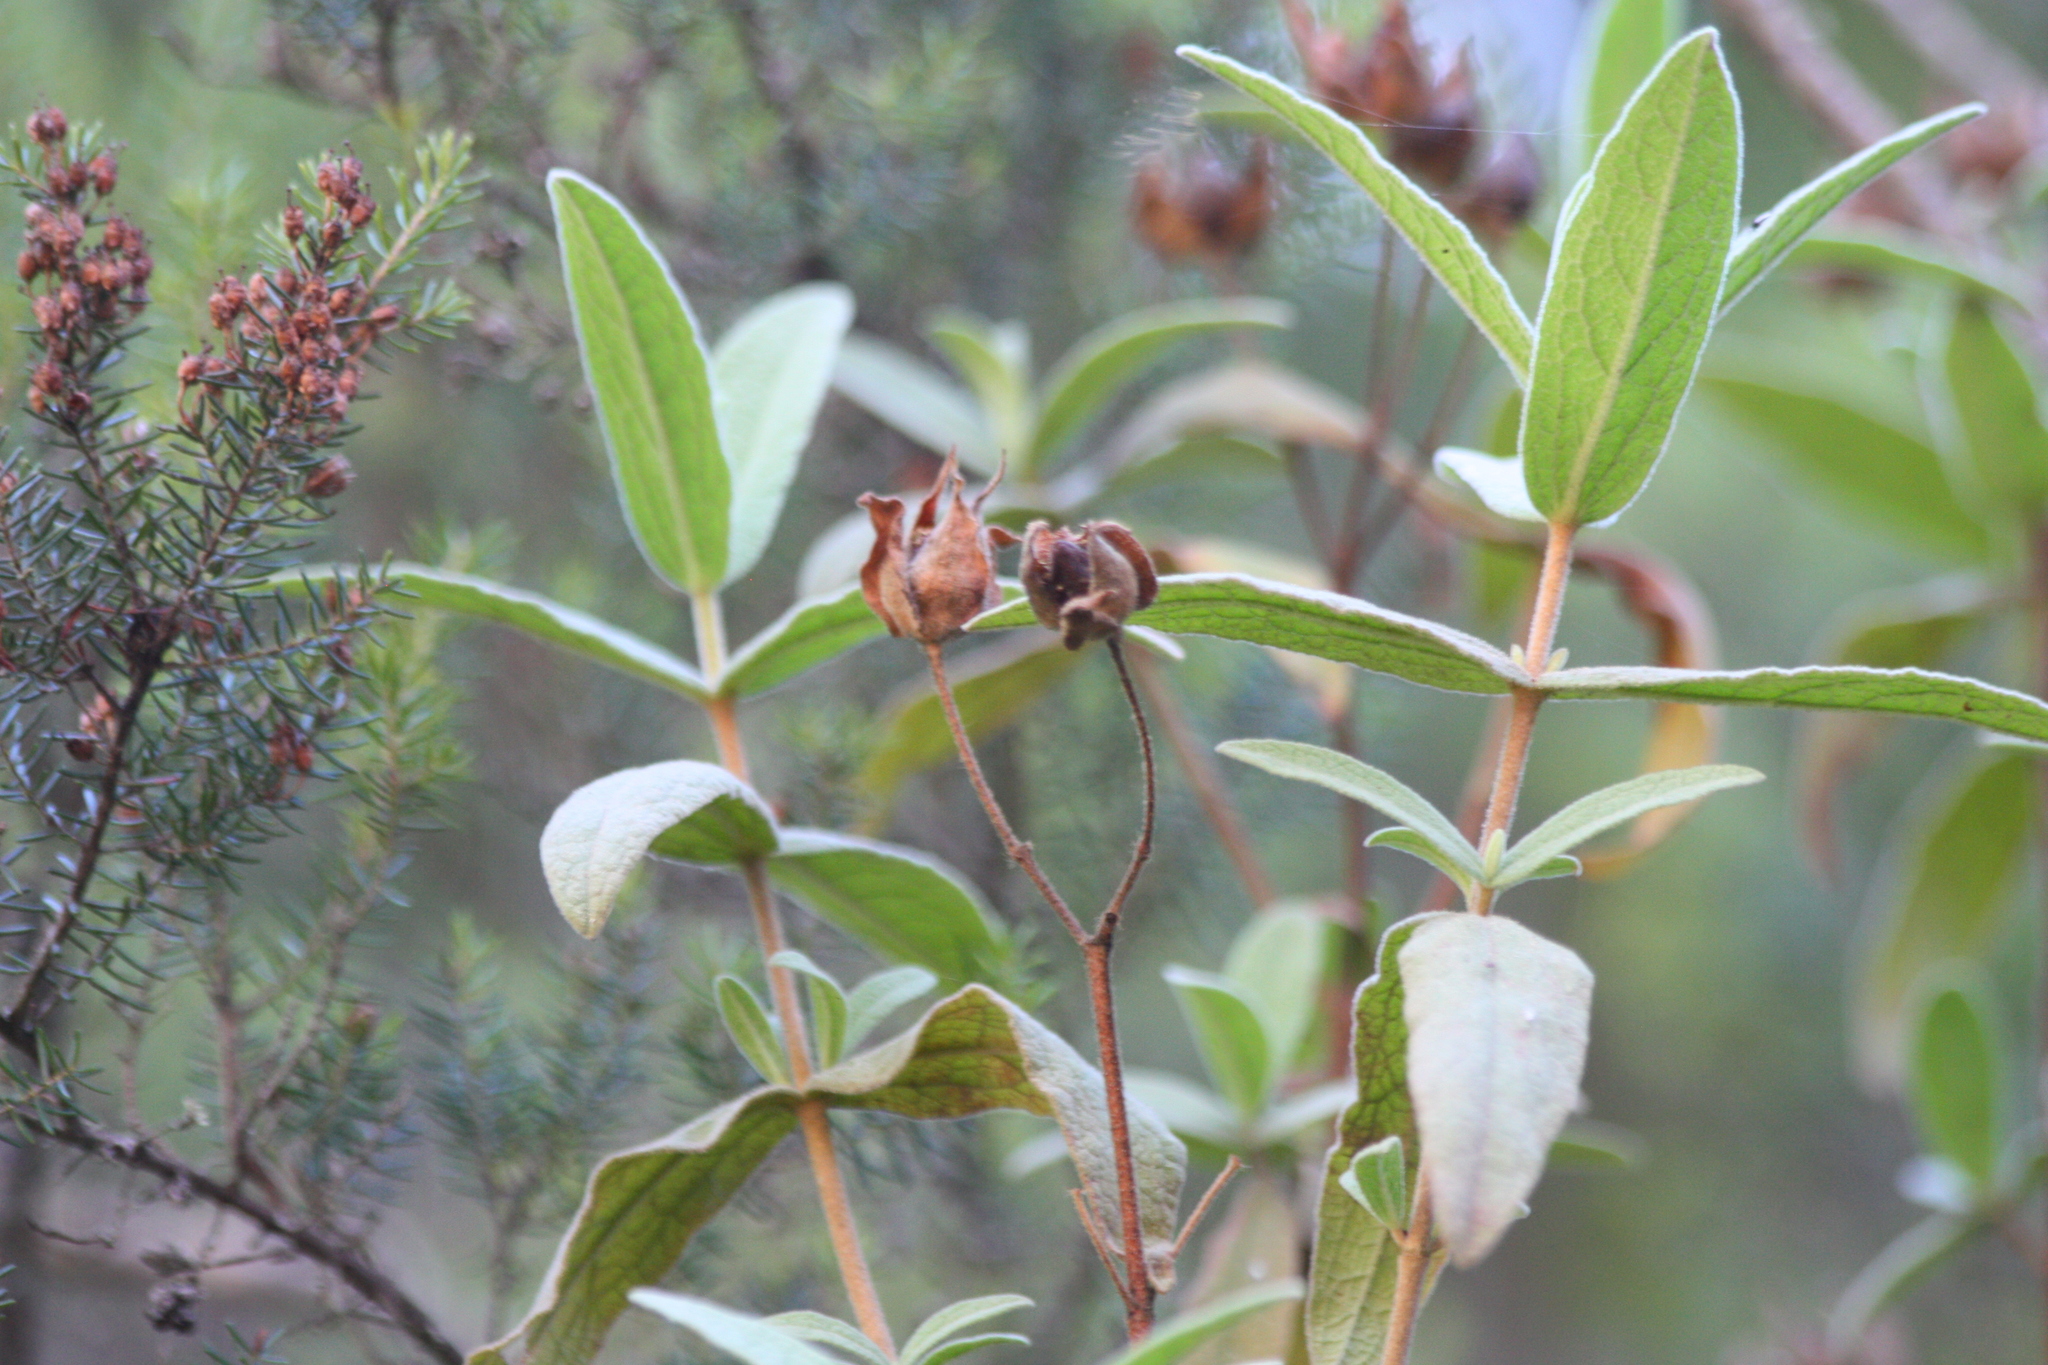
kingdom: Plantae
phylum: Tracheophyta
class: Magnoliopsida
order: Malvales
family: Cistaceae
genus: Cistus
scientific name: Cistus albidus
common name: White-leaf rock-rose
